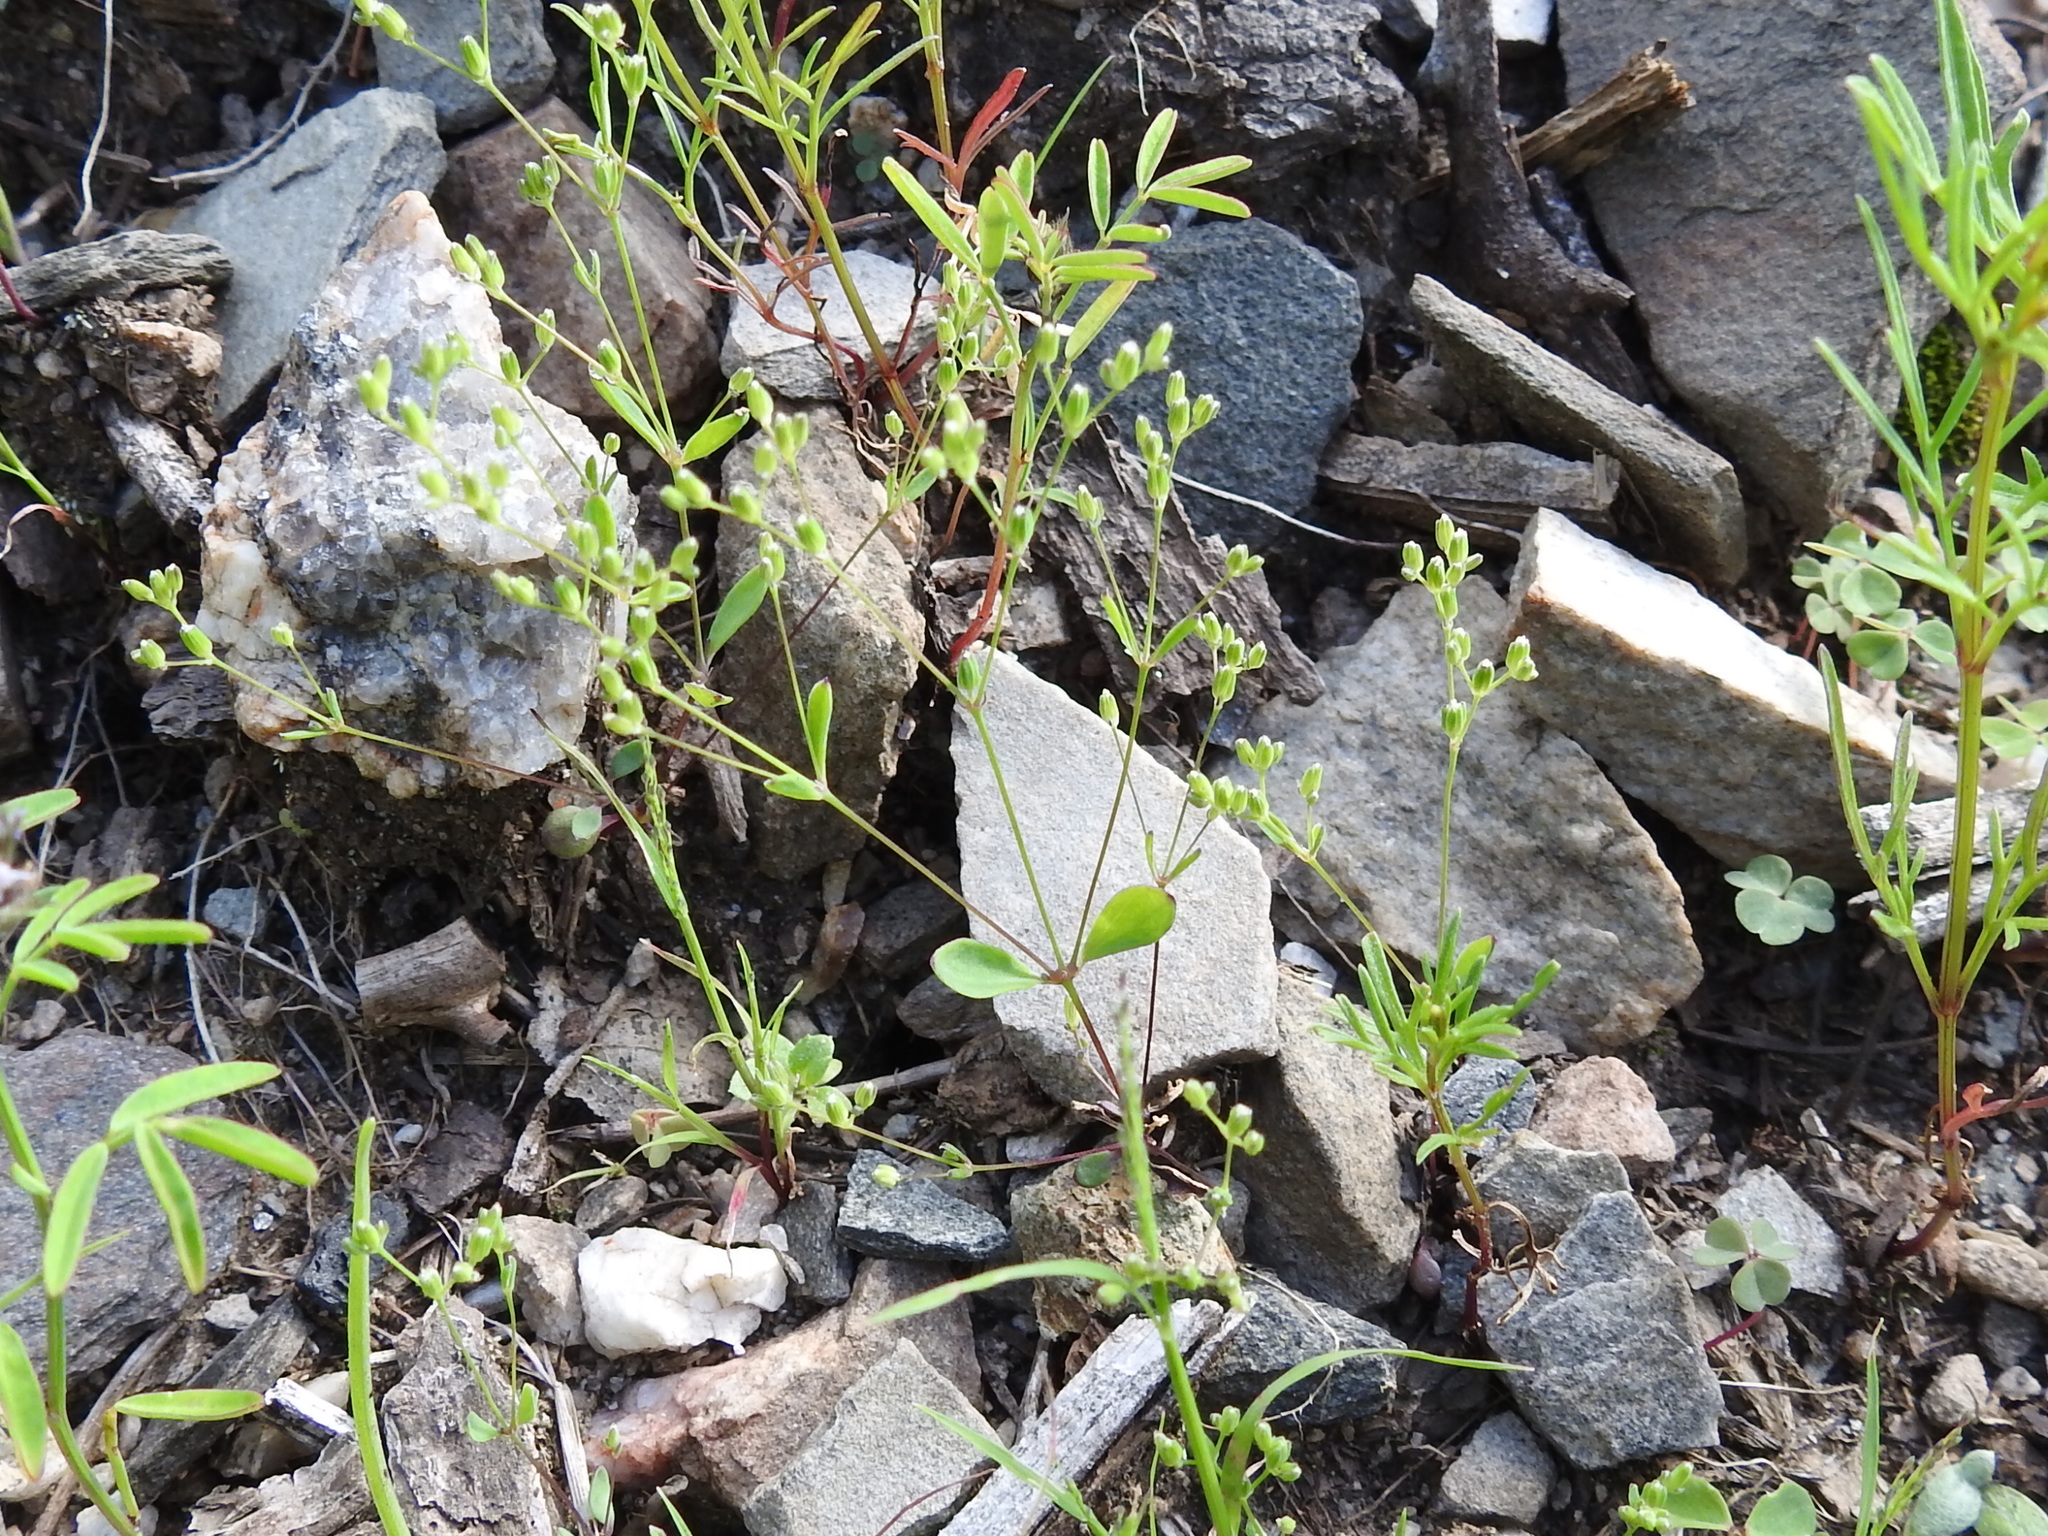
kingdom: Plantae
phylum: Tracheophyta
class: Magnoliopsida
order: Caryophyllales
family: Caryophyllaceae
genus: Drymaria
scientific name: Drymaria leptophylla
